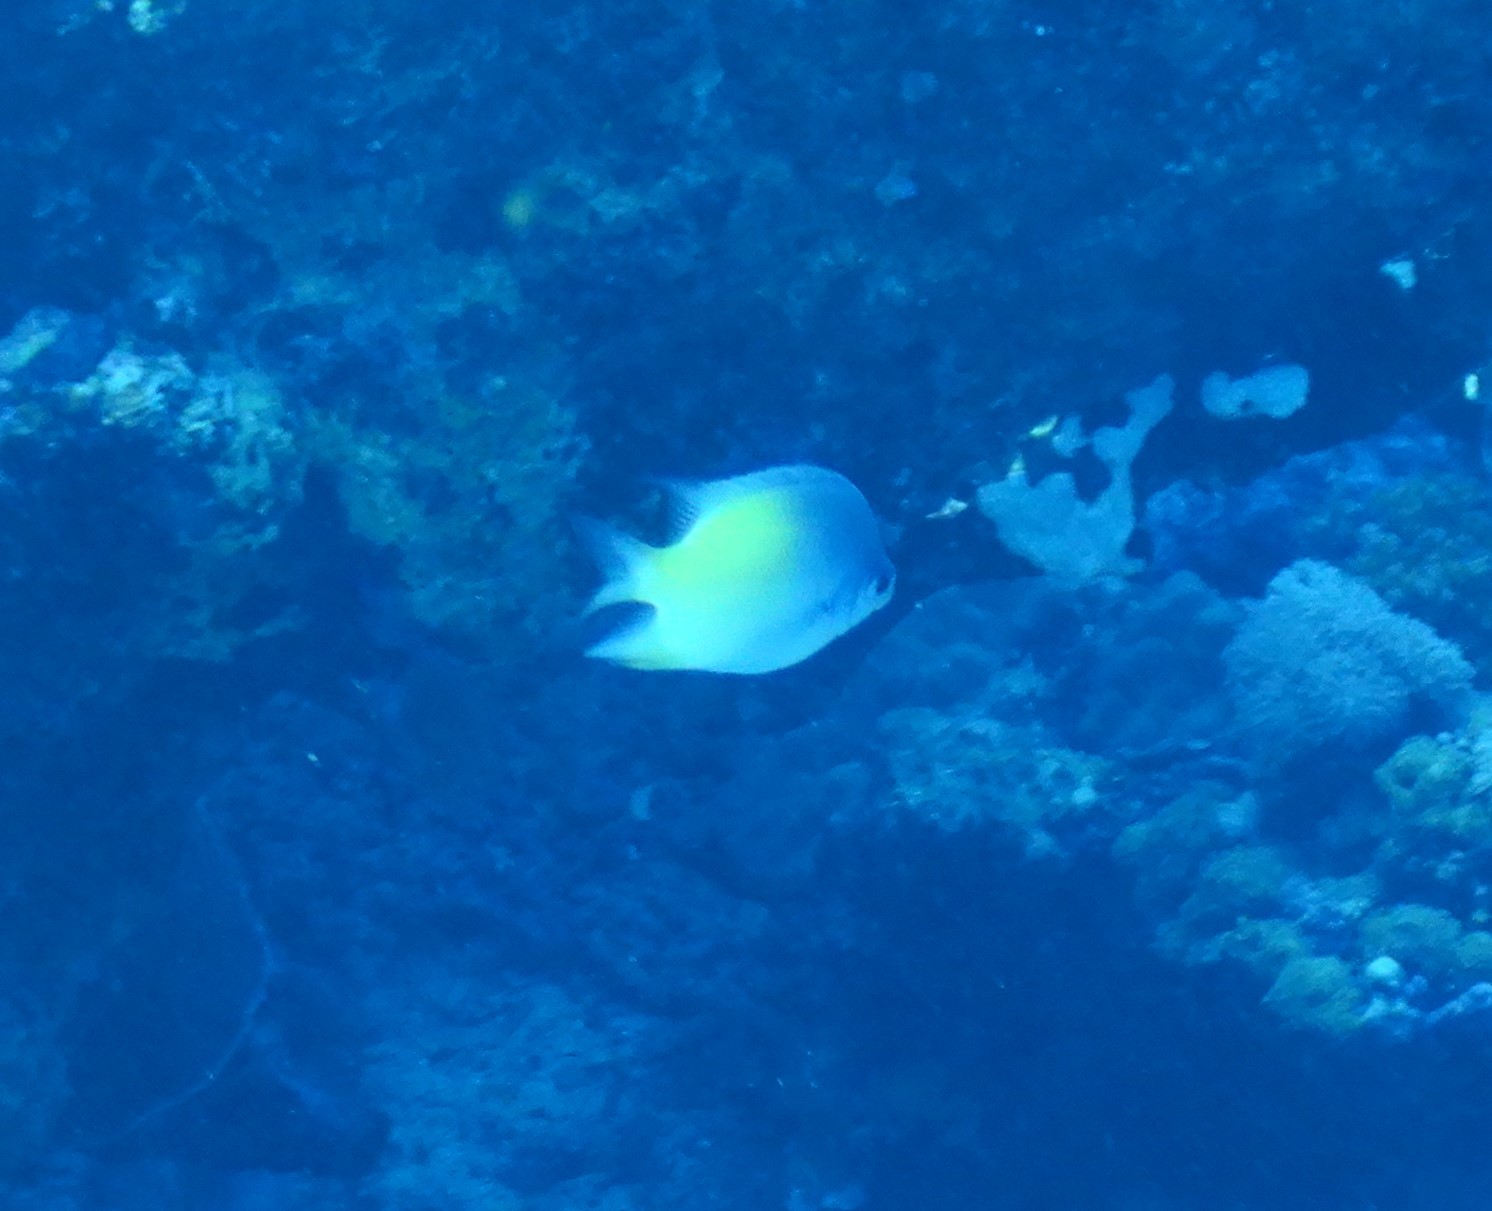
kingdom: Animalia
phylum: Chordata
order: Perciformes
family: Pomacentridae
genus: Amblyglyphidodon
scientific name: Amblyglyphidodon flavilatus
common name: Yellowfin damsel
